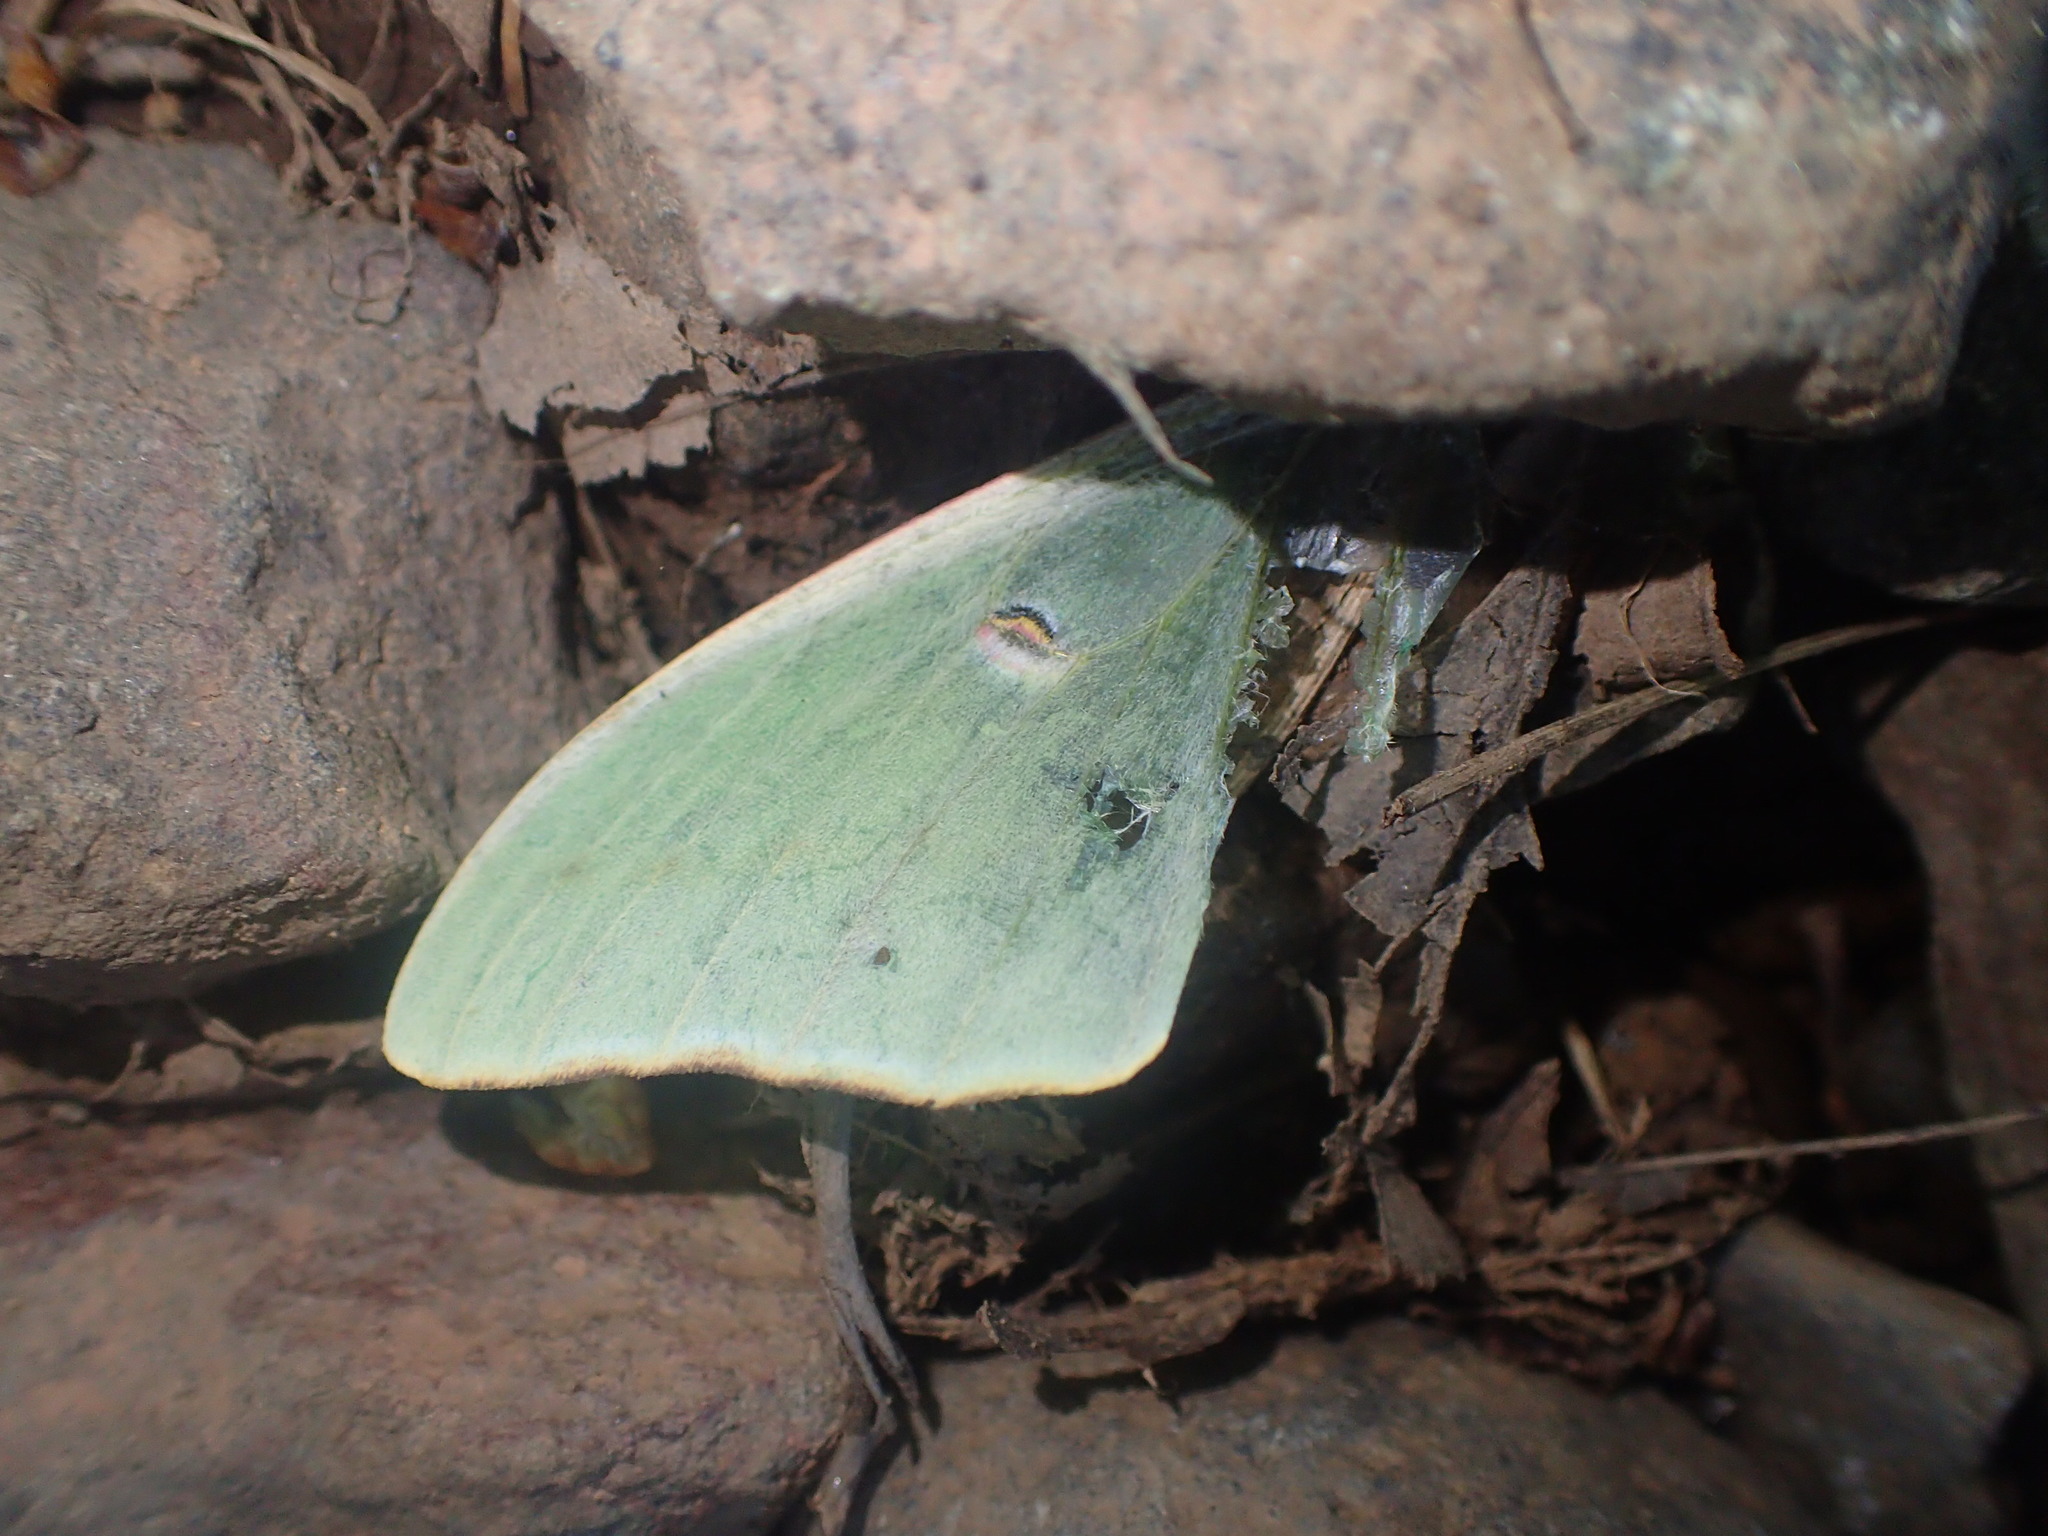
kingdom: Animalia
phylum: Arthropoda
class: Insecta
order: Lepidoptera
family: Saturniidae
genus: Actias
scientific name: Actias luna
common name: Luna moth
